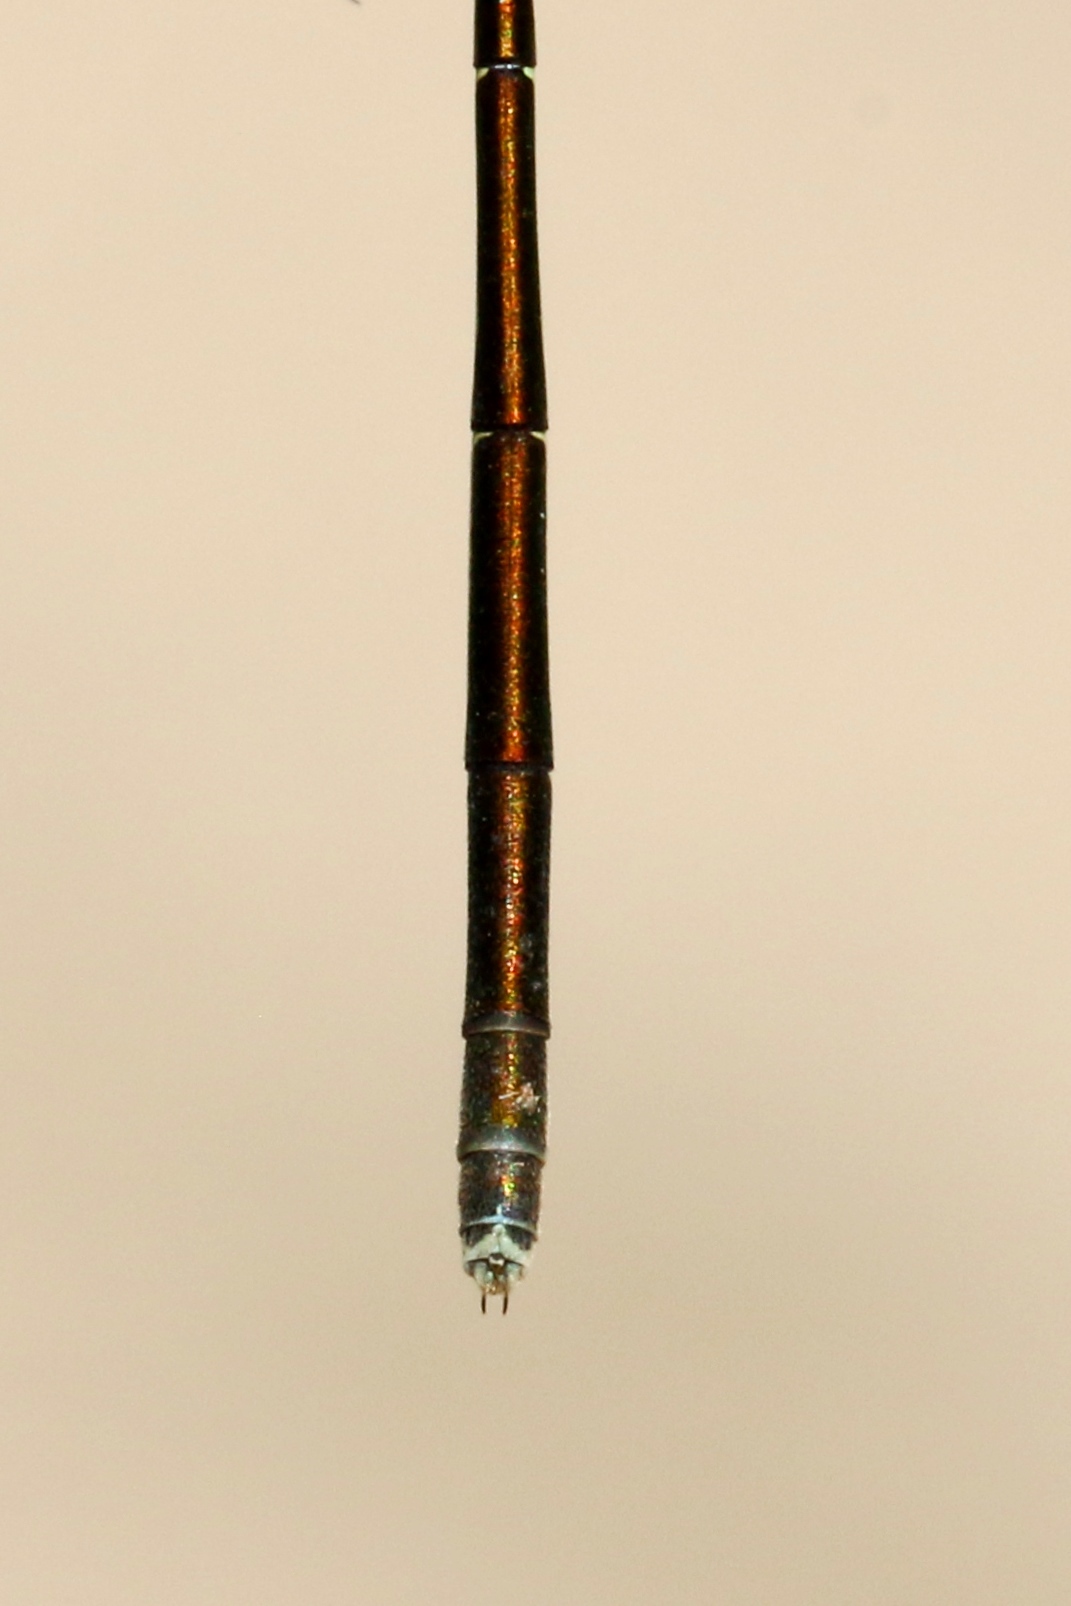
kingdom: Animalia
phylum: Arthropoda
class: Insecta
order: Odonata
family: Coenagrionidae
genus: Nehalennia
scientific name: Nehalennia irene
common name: Sedge sprite
